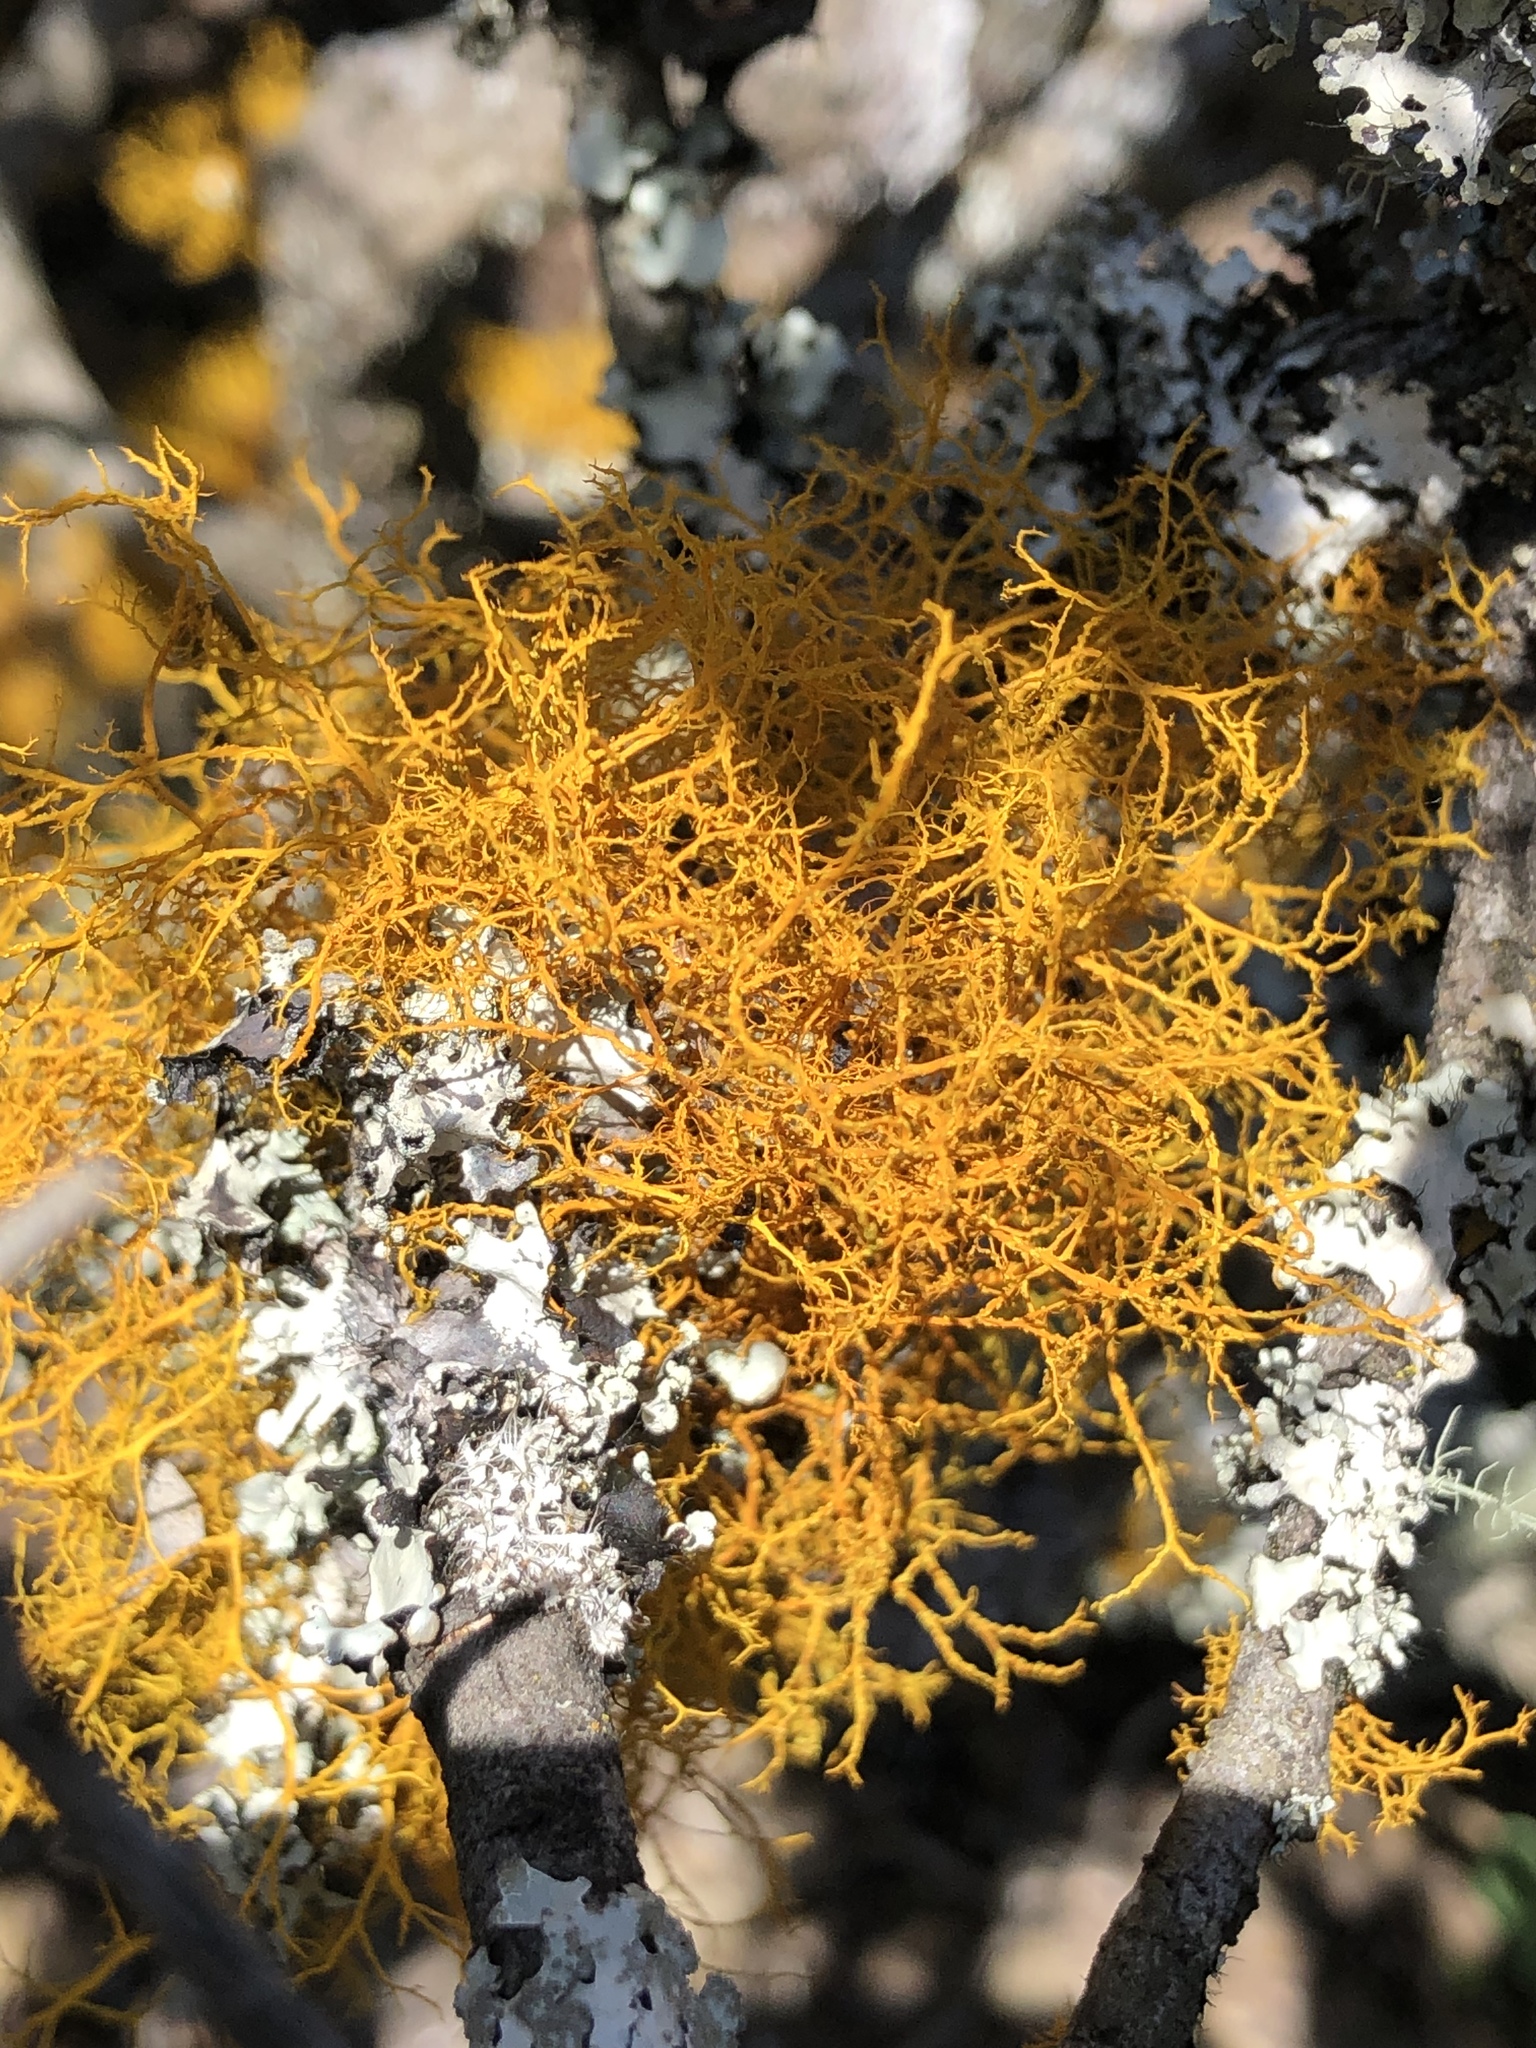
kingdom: Fungi
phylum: Ascomycota
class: Lecanoromycetes
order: Teloschistales
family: Teloschistaceae
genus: Teloschistes
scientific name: Teloschistes flavicans
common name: Golden hair-lichen
